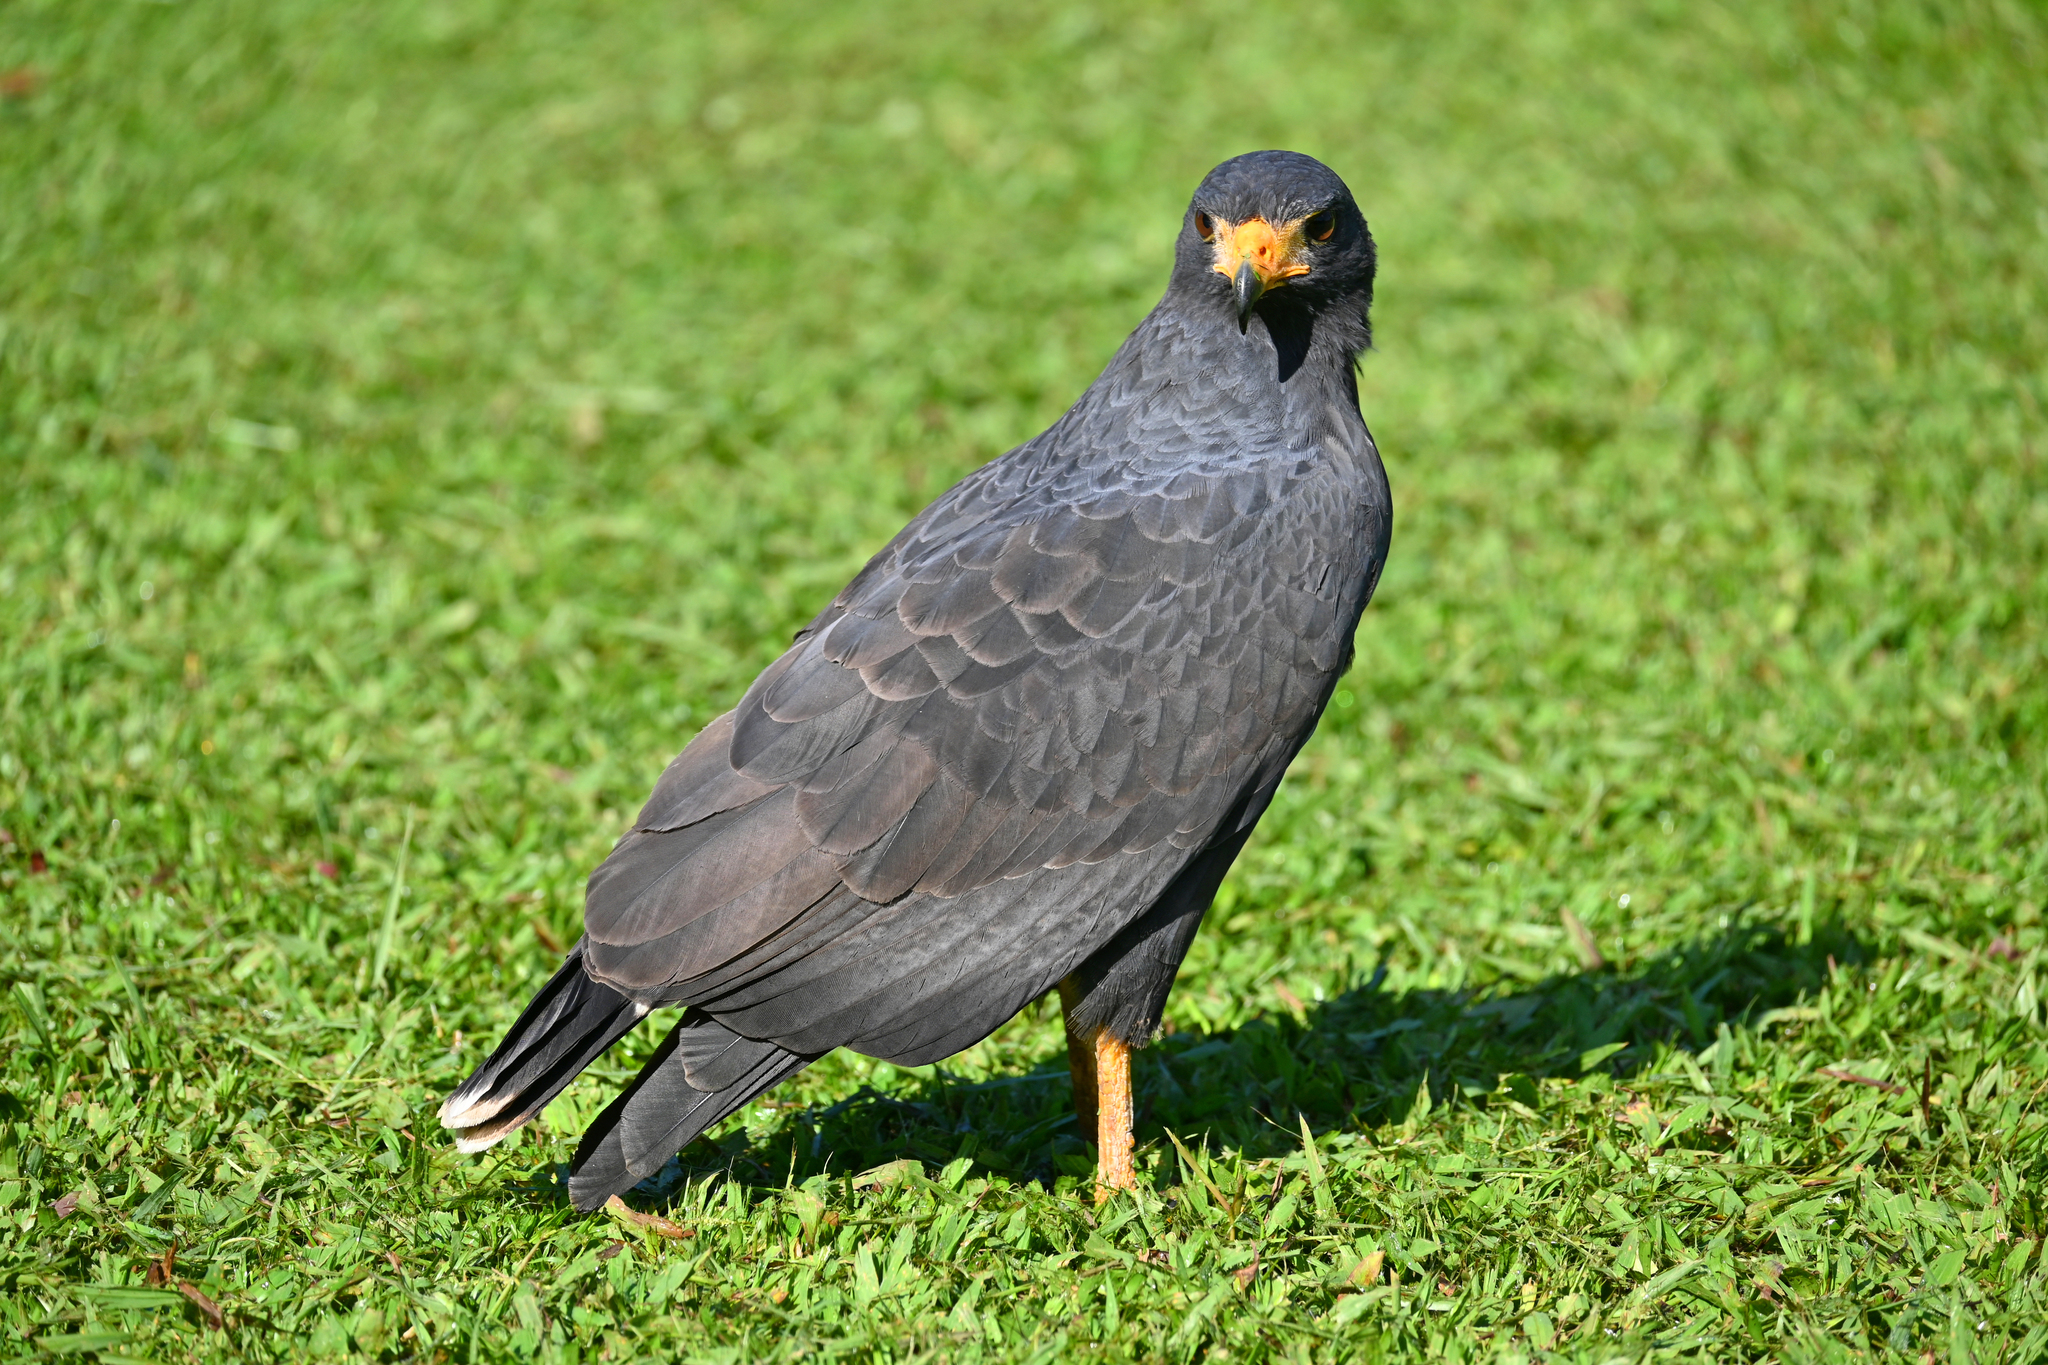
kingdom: Animalia
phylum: Chordata
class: Aves
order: Accipitriformes
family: Accipitridae
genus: Buteogallus
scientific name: Buteogallus anthracinus
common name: Common black hawk
